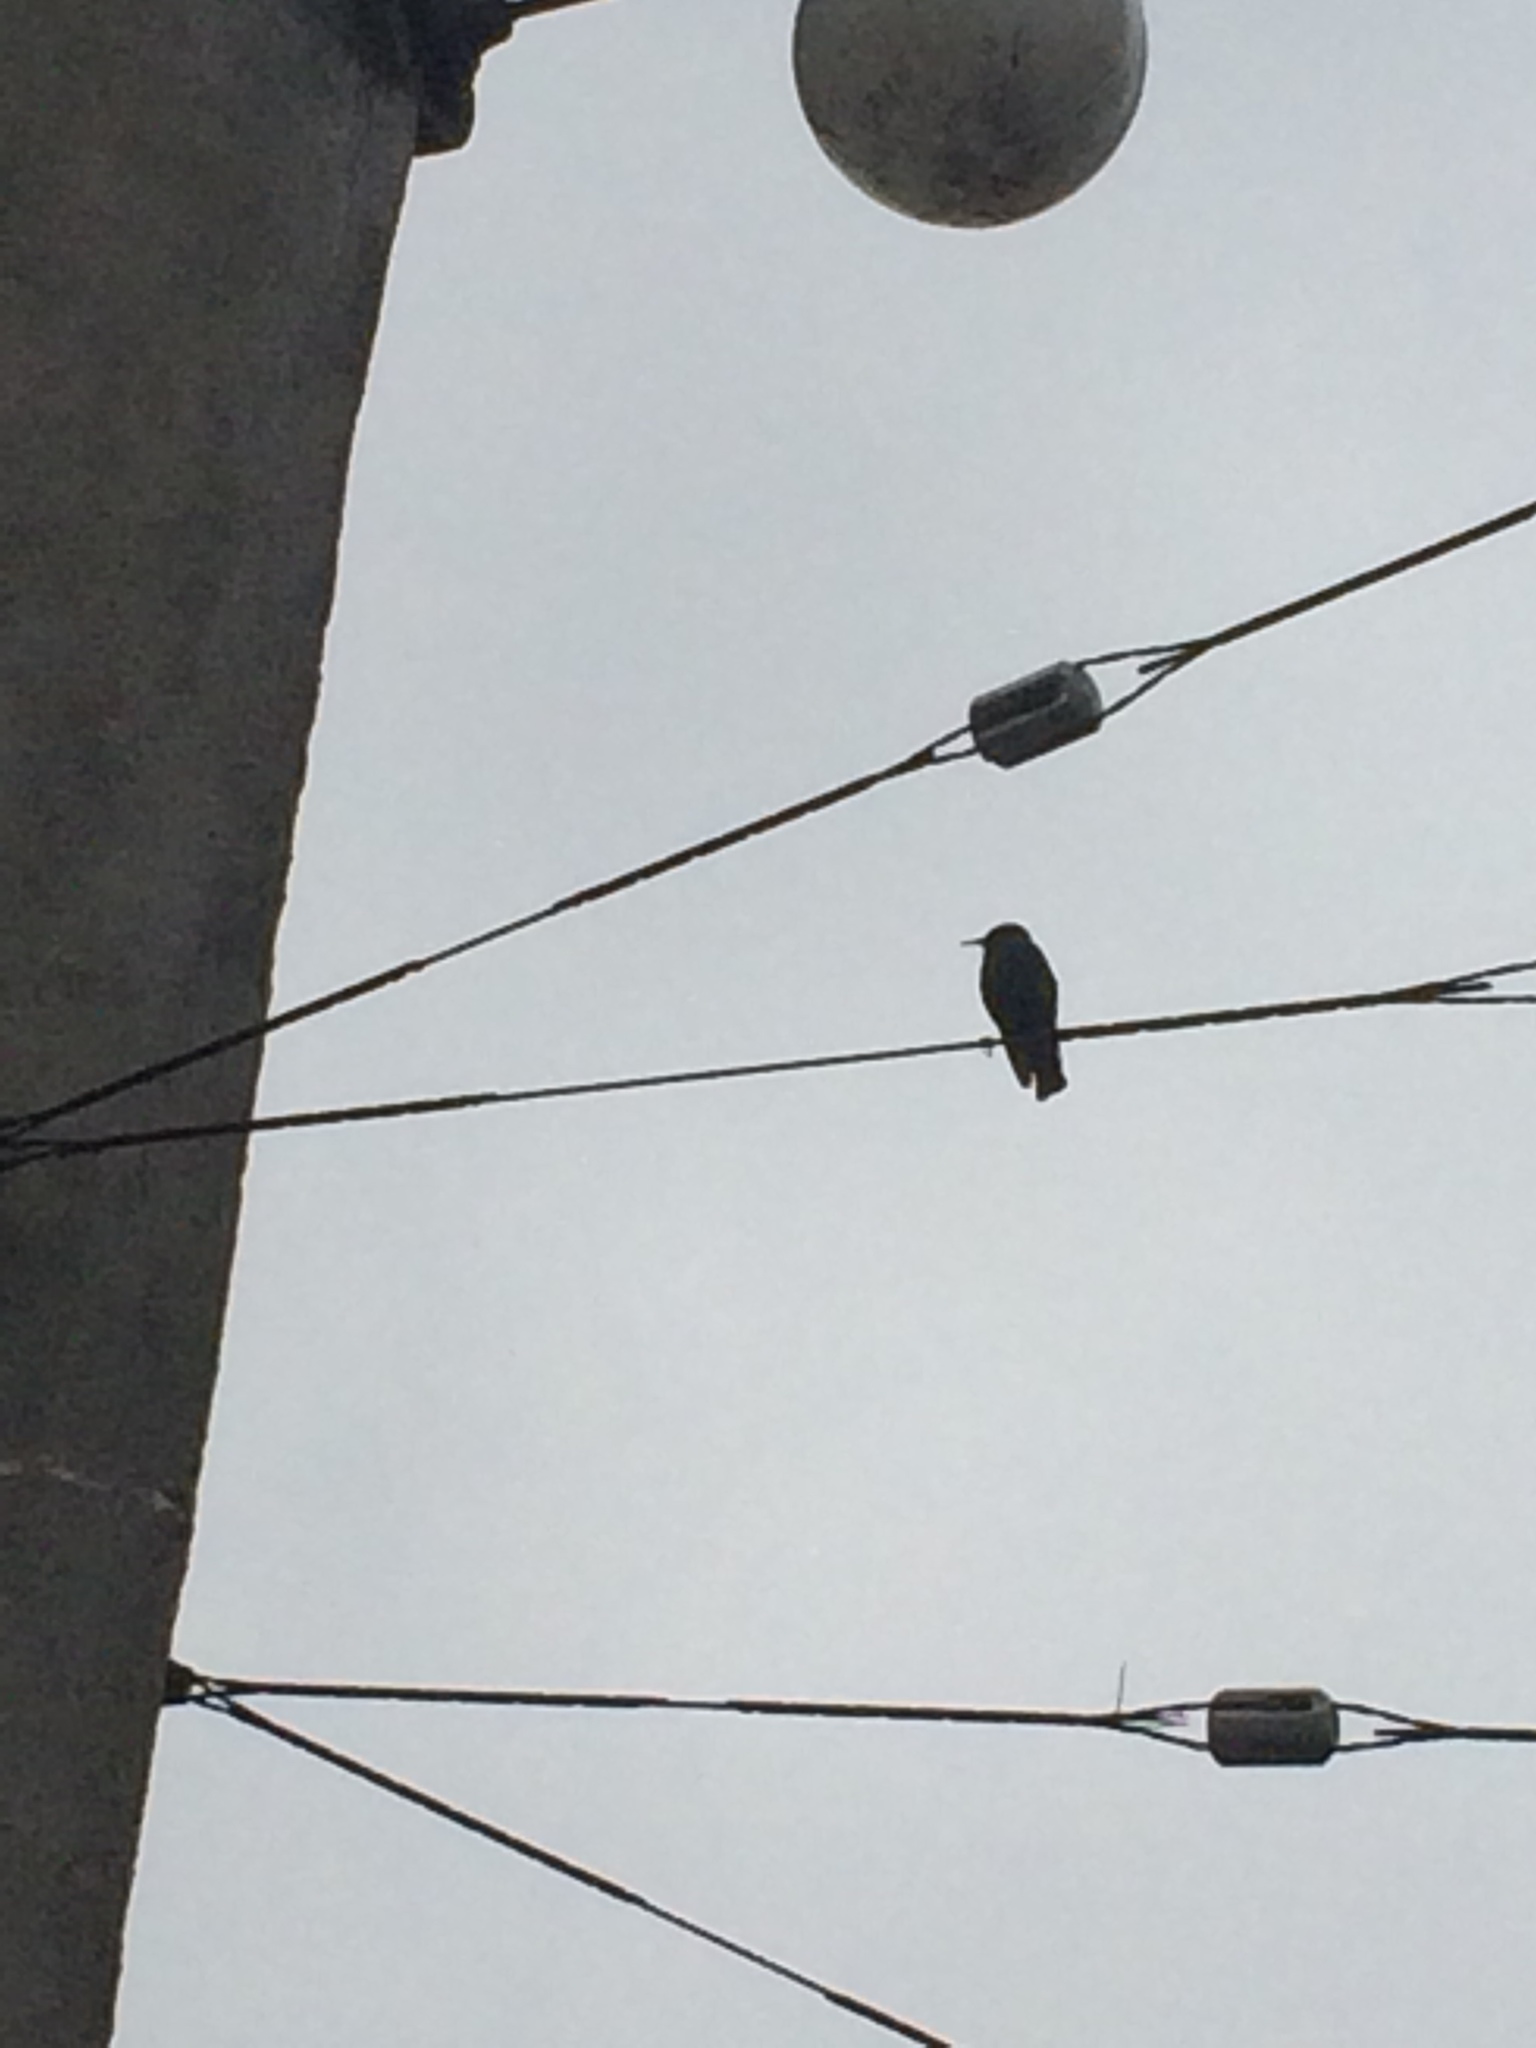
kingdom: Animalia
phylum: Chordata
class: Aves
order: Passeriformes
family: Sturnidae
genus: Sturnus
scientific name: Sturnus vulgaris
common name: Common starling
